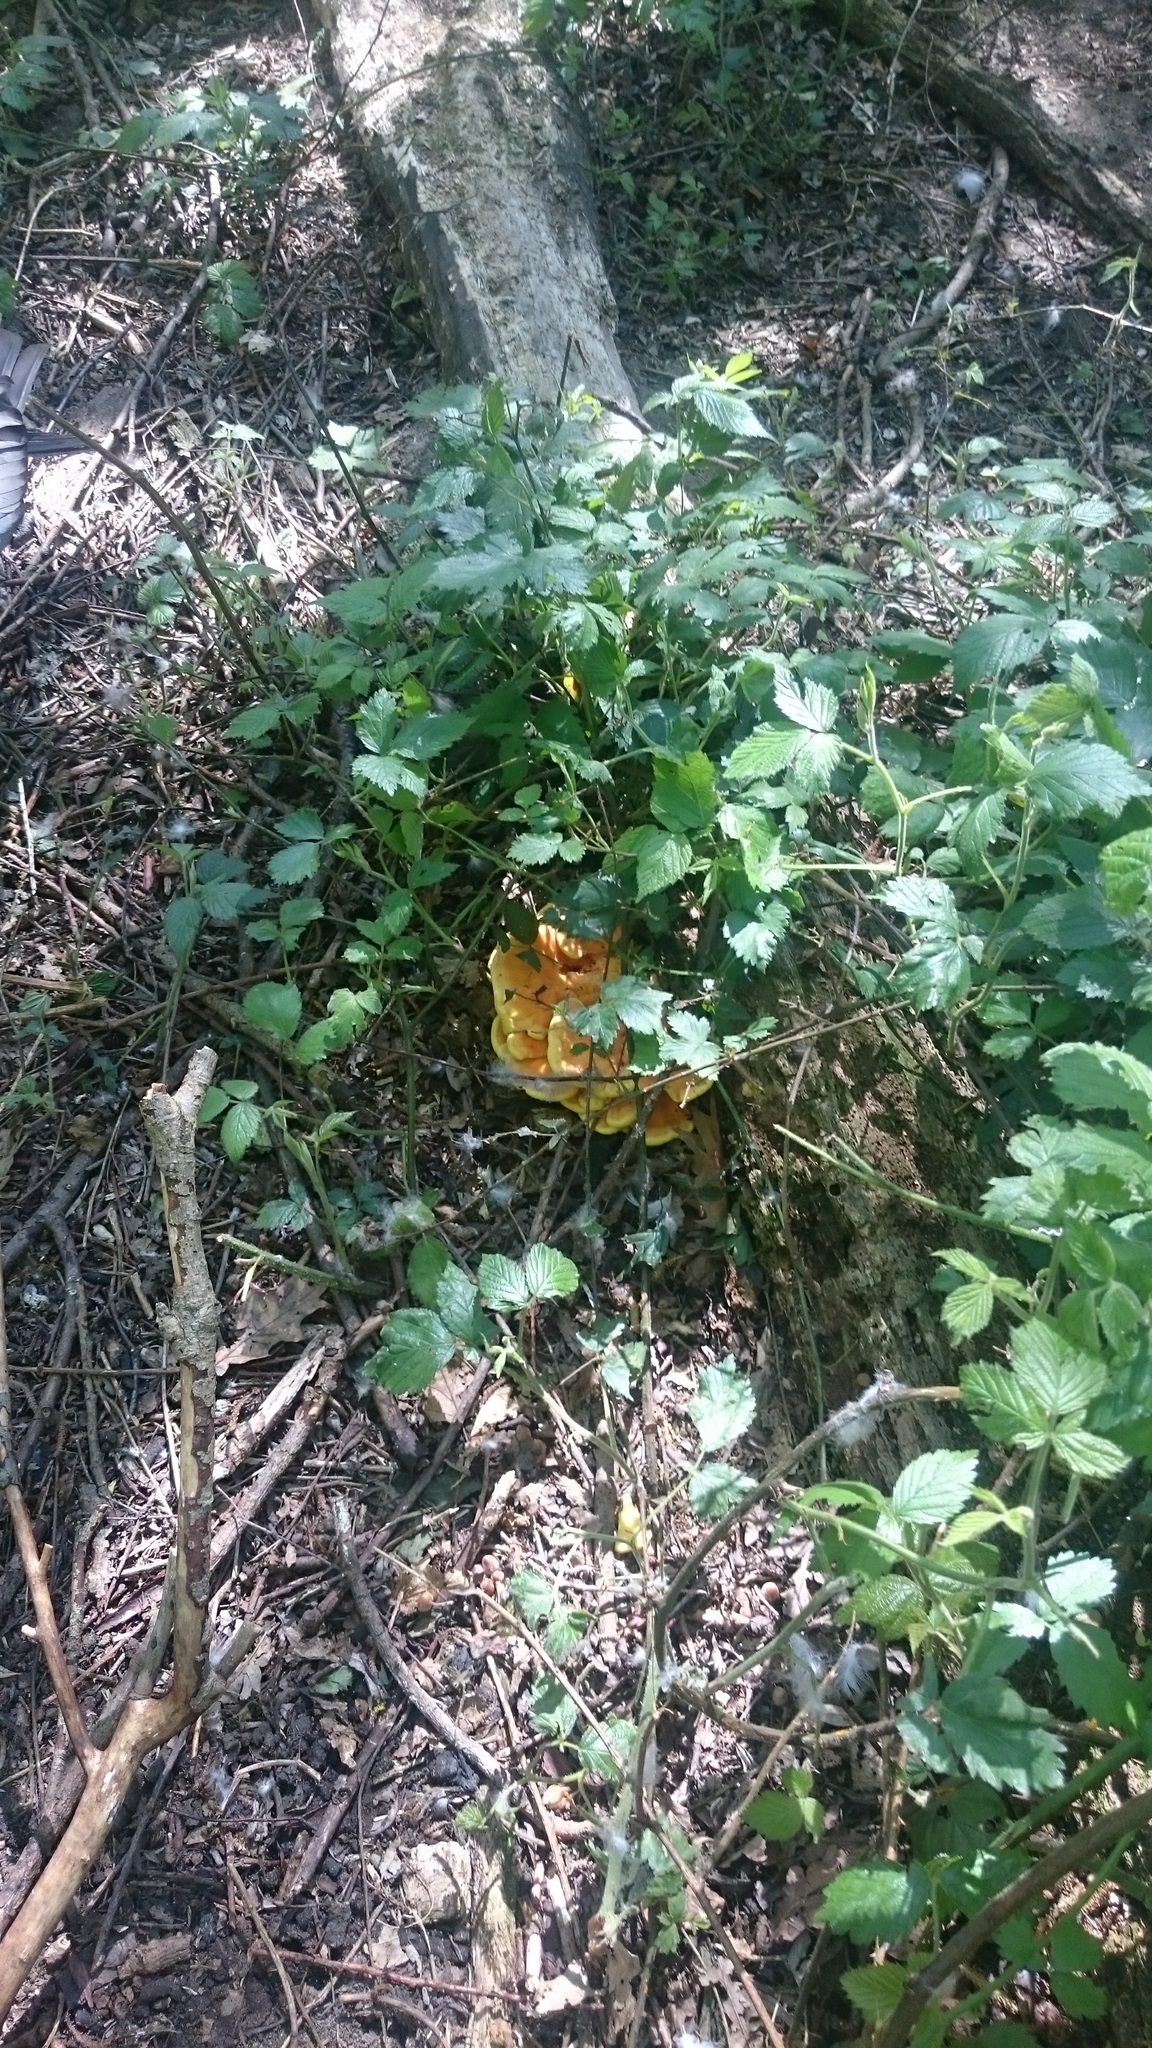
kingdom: Fungi
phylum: Basidiomycota
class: Agaricomycetes
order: Polyporales
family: Laetiporaceae
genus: Laetiporus
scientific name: Laetiporus sulphureus
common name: Chicken of the woods
